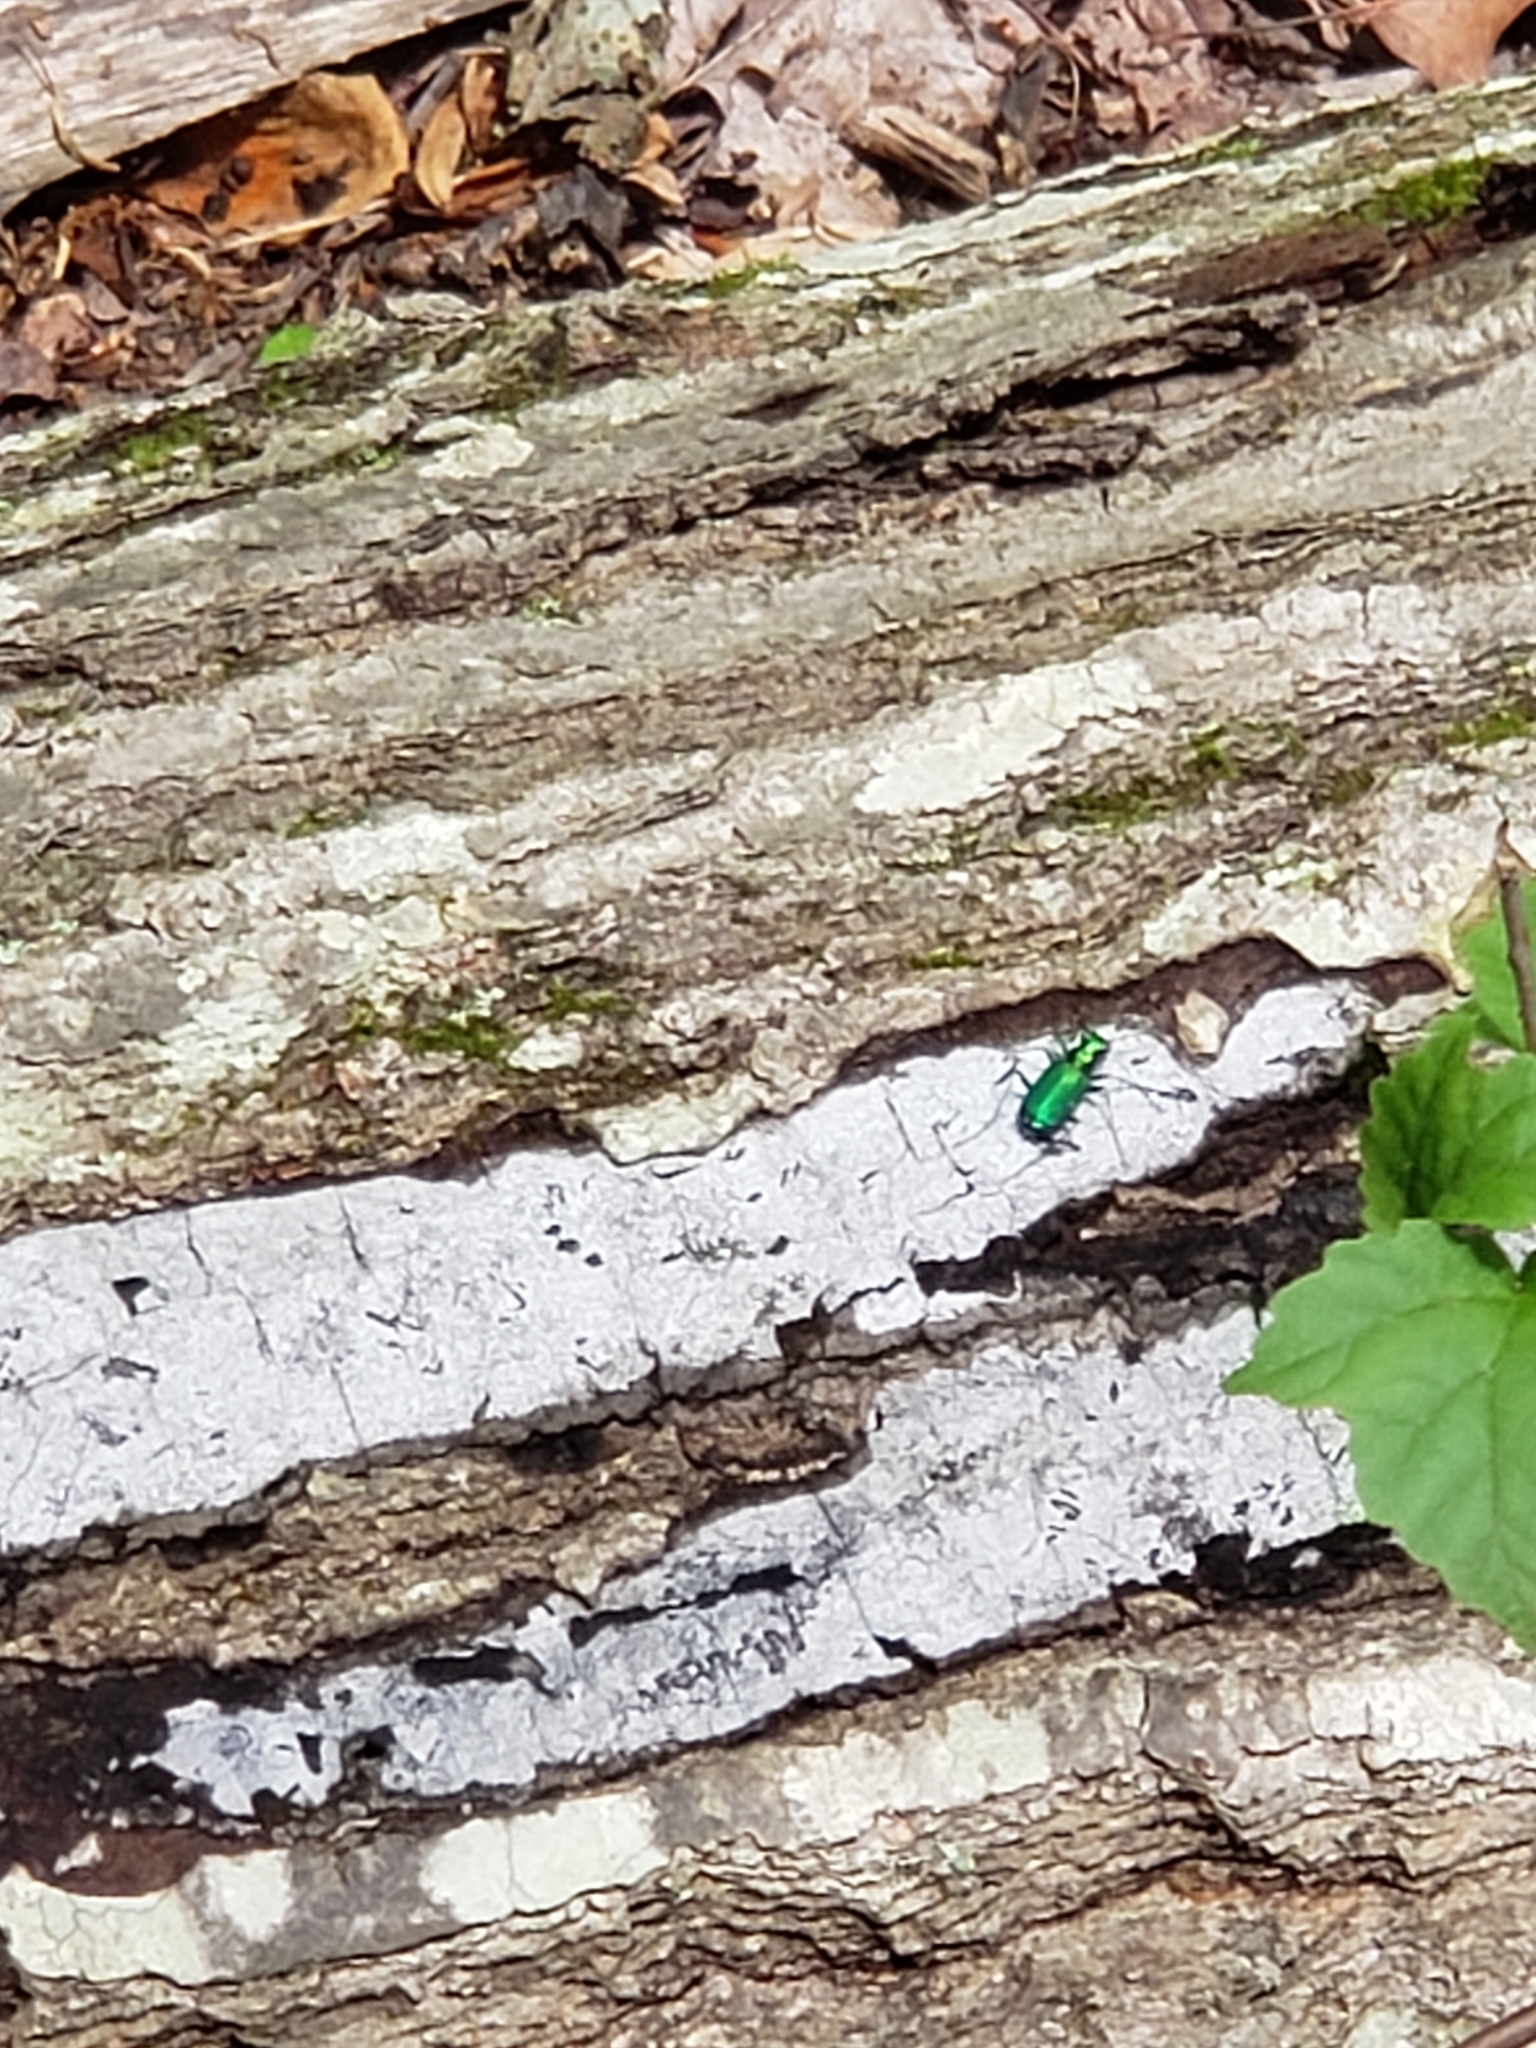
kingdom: Animalia
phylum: Arthropoda
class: Insecta
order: Coleoptera
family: Carabidae
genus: Cicindela
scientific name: Cicindela sexguttata
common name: Six-spotted tiger beetle
